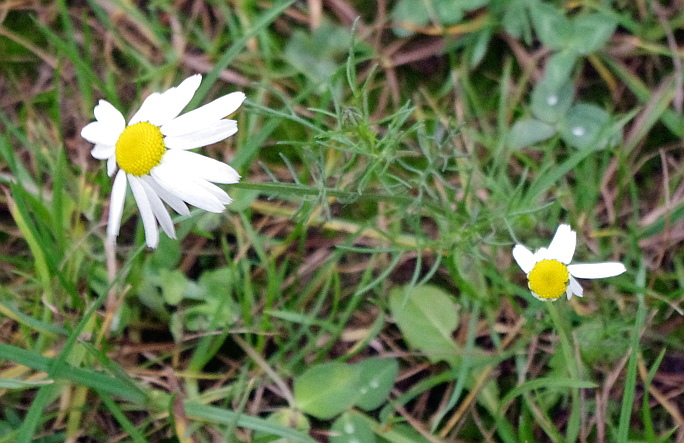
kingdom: Plantae
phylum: Tracheophyta
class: Magnoliopsida
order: Asterales
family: Asteraceae
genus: Tripleurospermum
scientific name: Tripleurospermum inodorum
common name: Scentless mayweed
